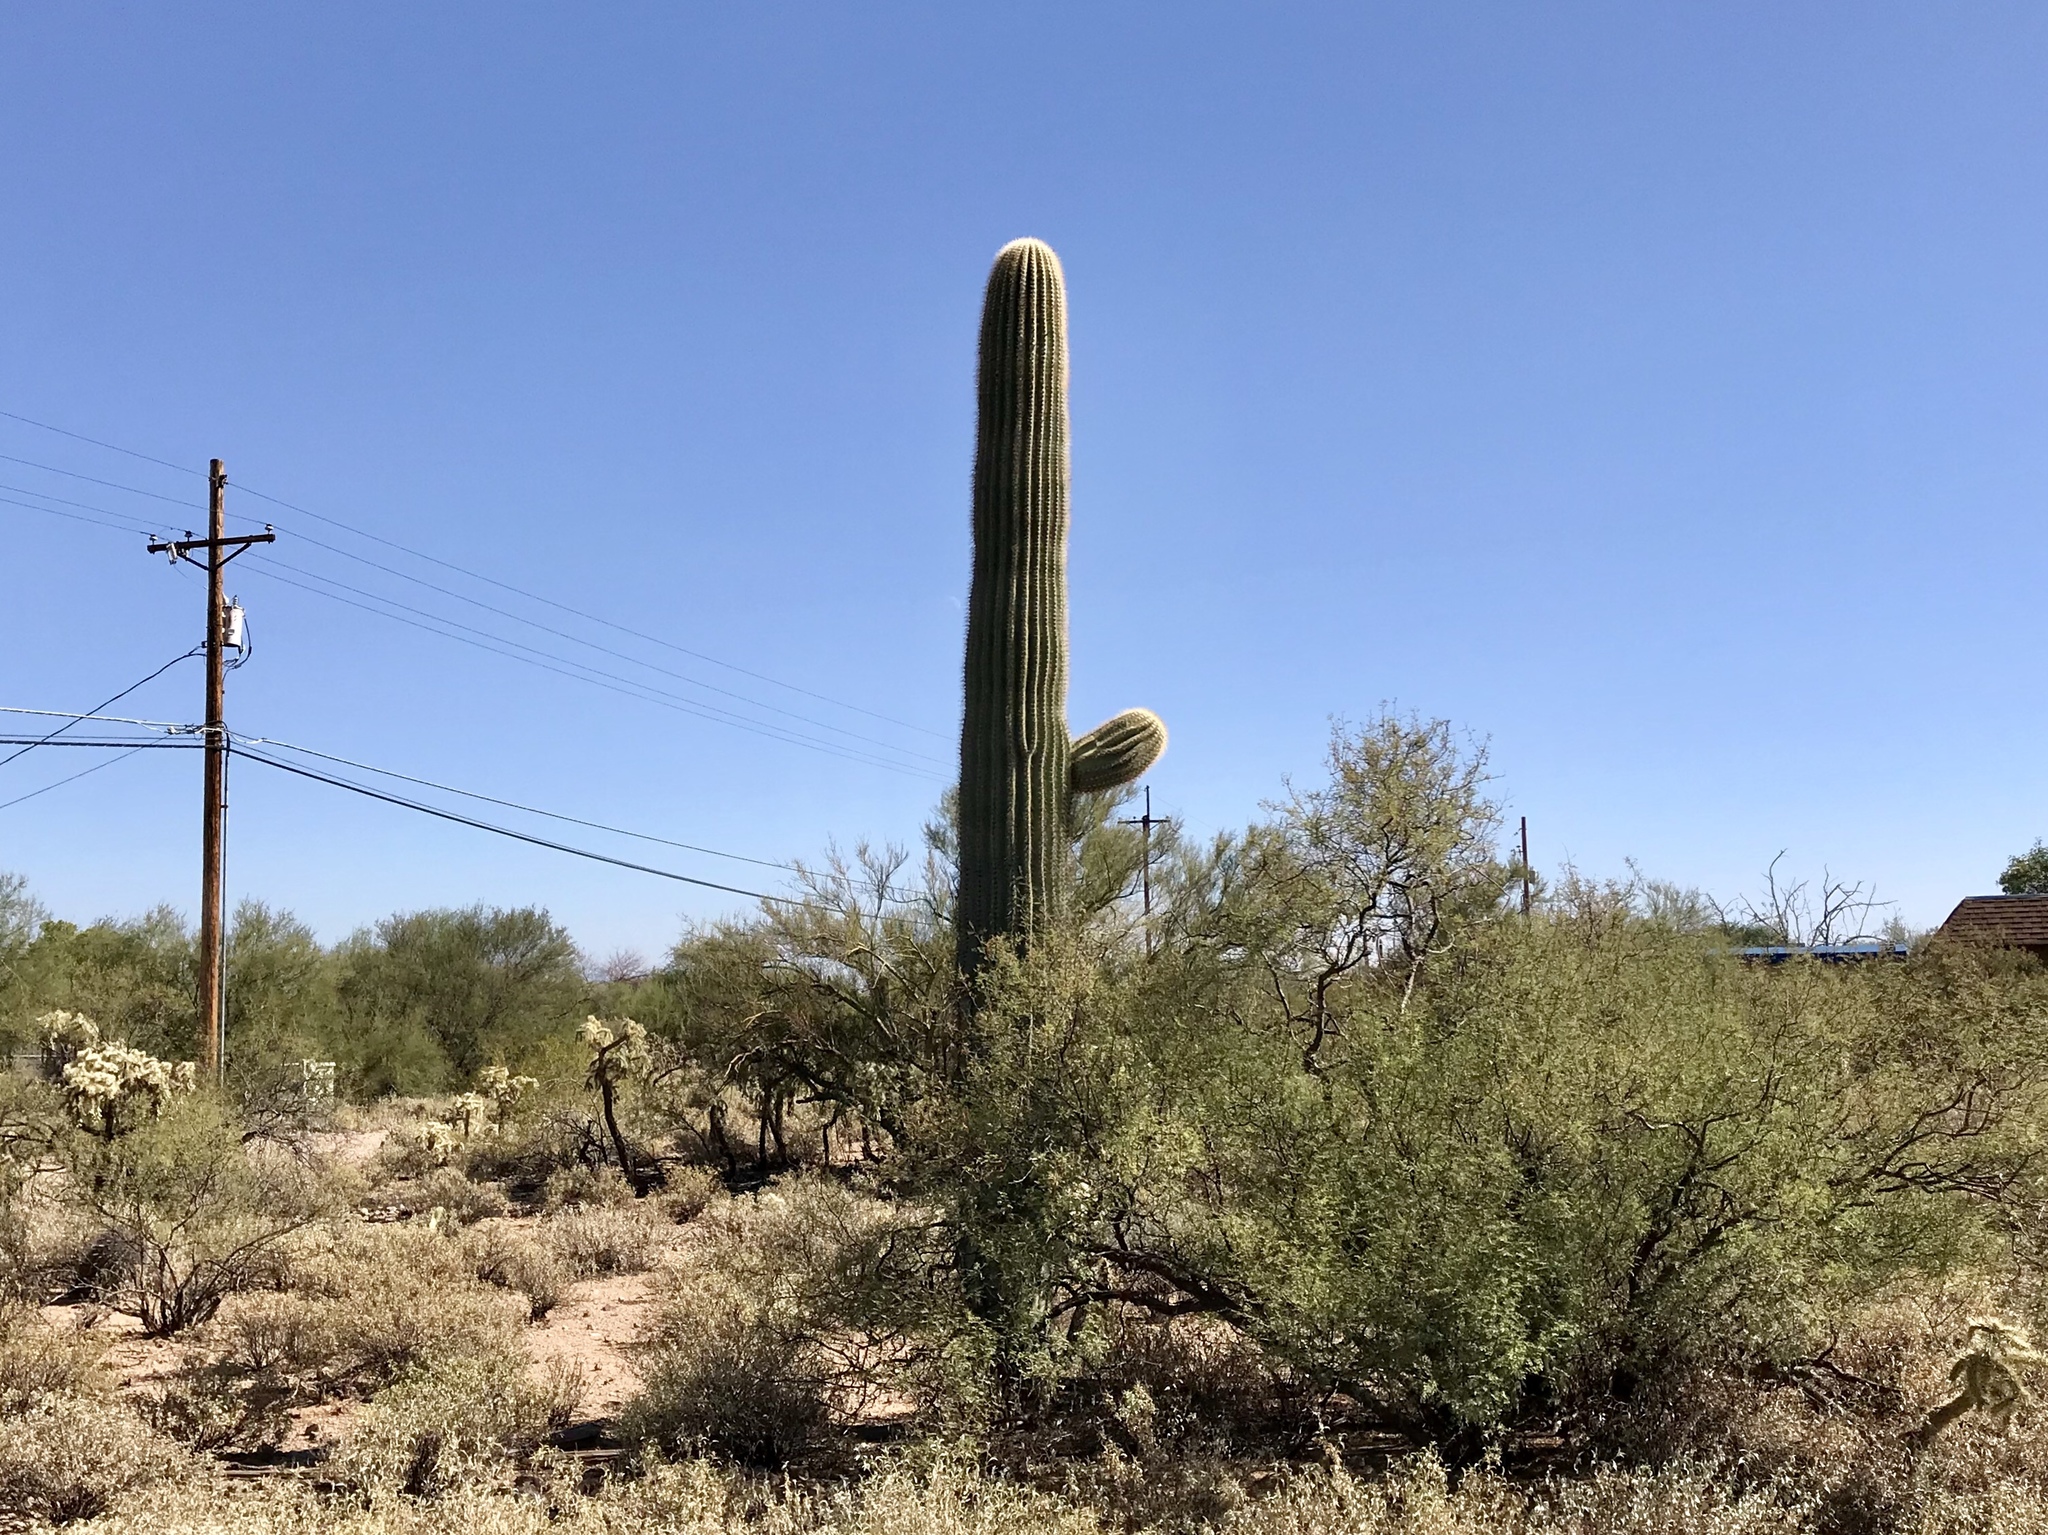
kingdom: Plantae
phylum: Tracheophyta
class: Magnoliopsida
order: Caryophyllales
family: Cactaceae
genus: Carnegiea
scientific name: Carnegiea gigantea
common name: Saguaro
